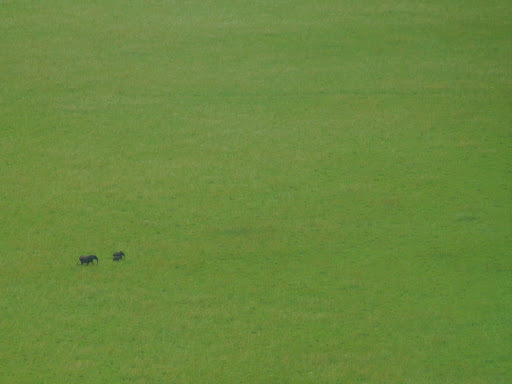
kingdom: Animalia
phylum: Chordata
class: Mammalia
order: Proboscidea
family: Elephantidae
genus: Loxodonta
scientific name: Loxodonta cyclotis
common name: African forest elephant
